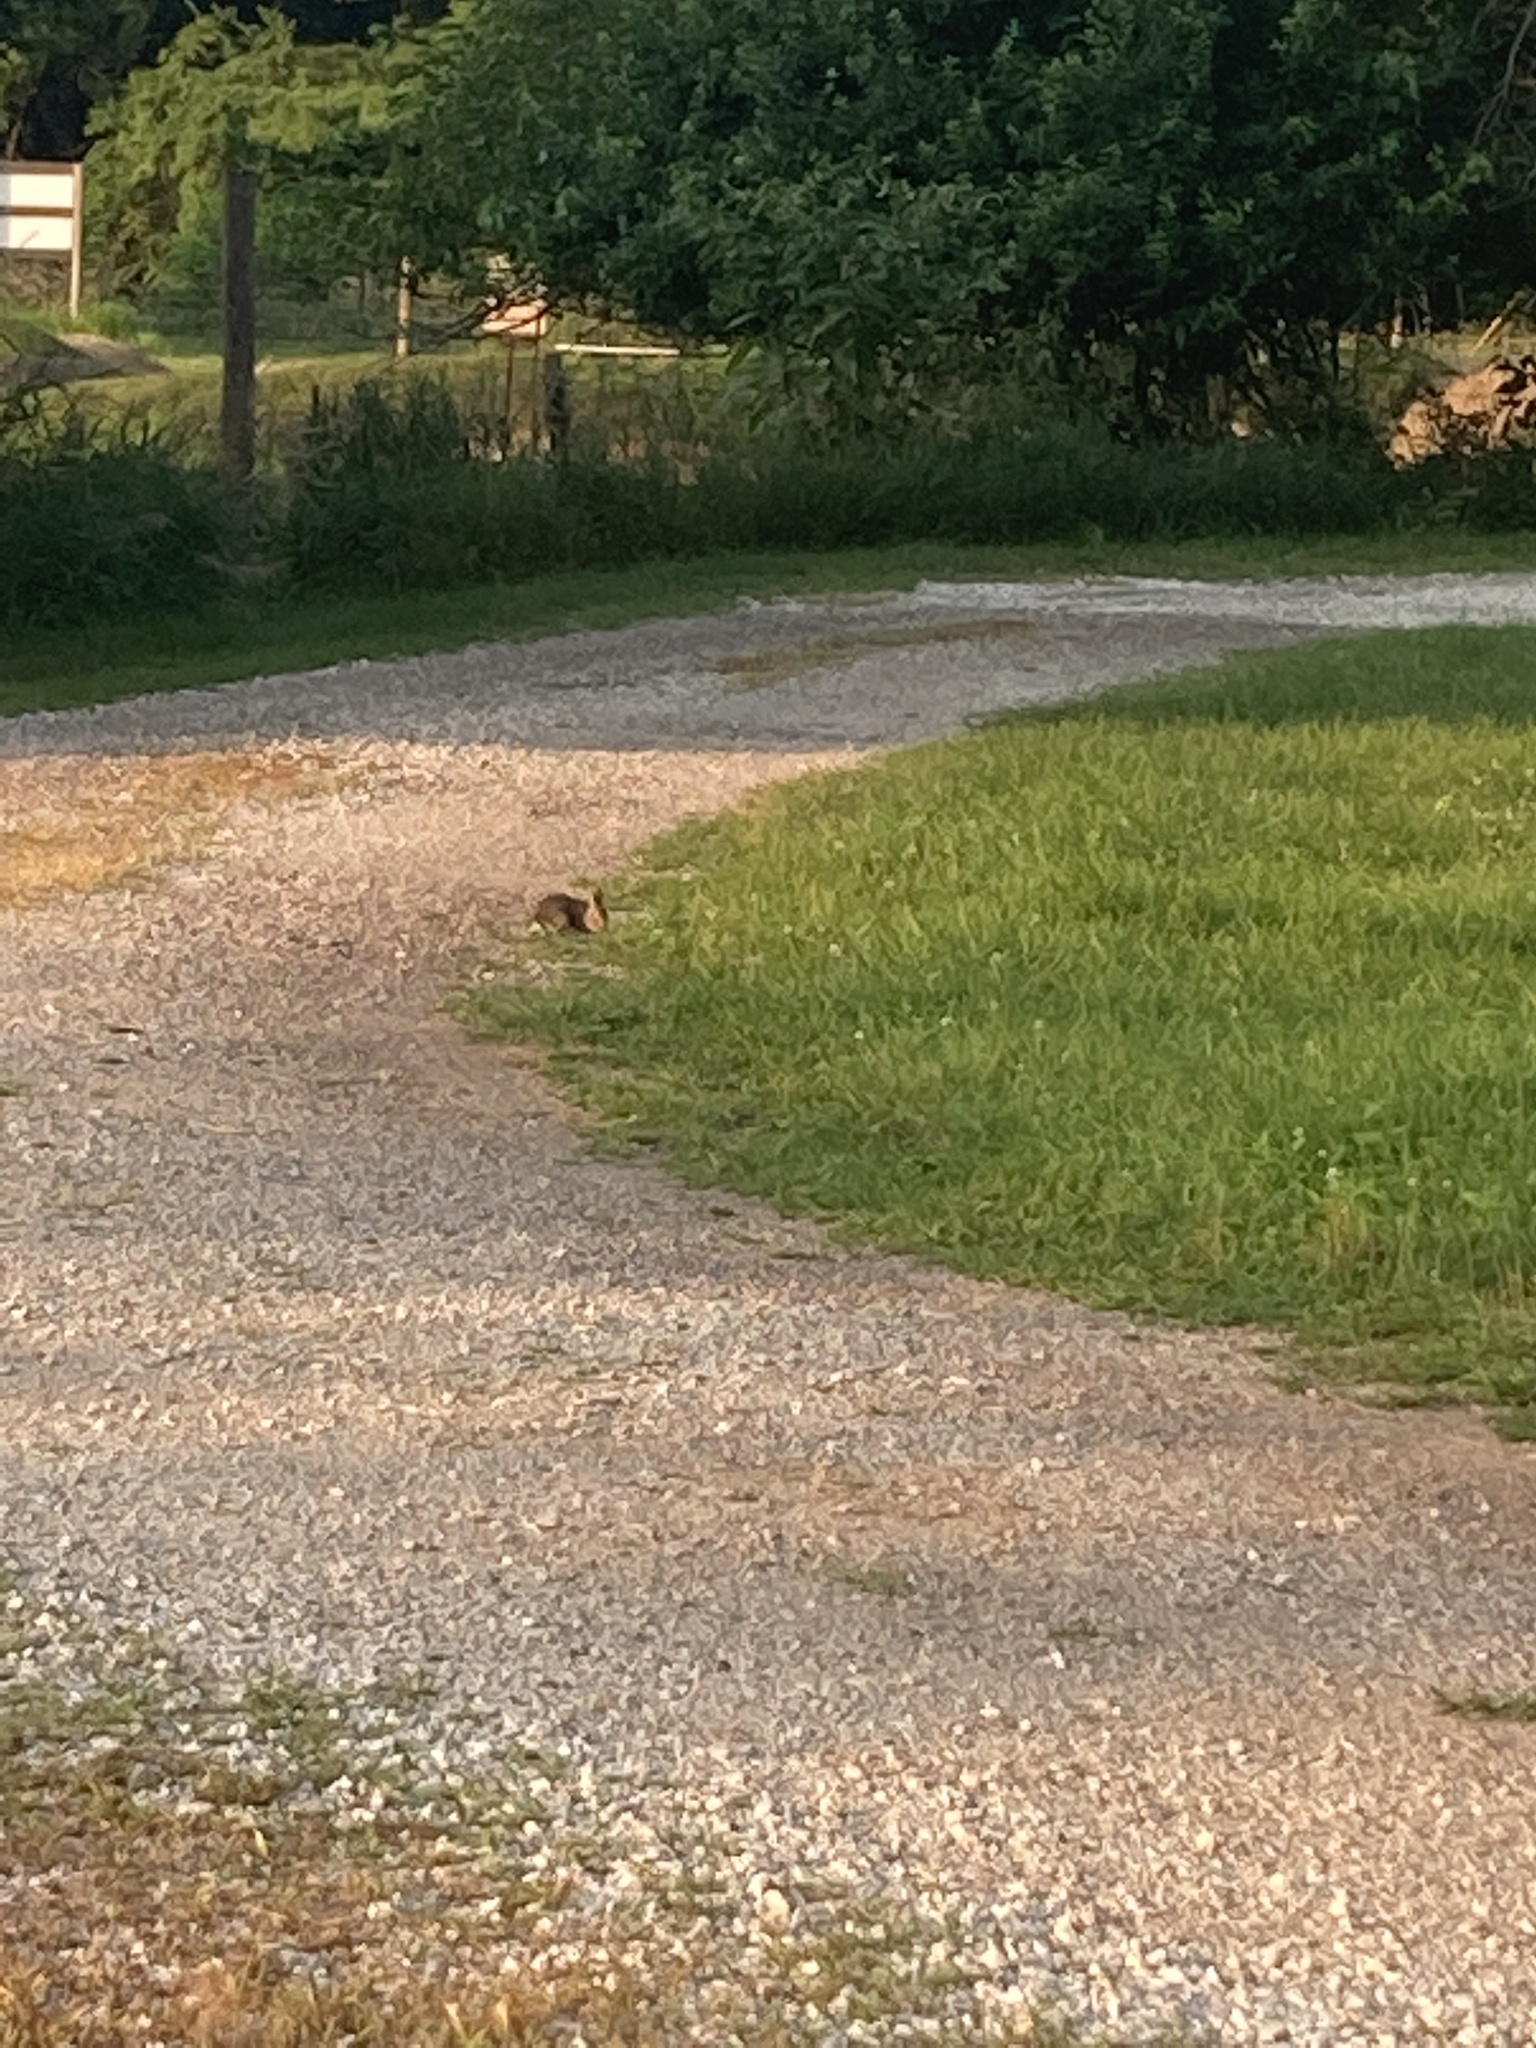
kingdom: Animalia
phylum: Chordata
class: Mammalia
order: Lagomorpha
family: Leporidae
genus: Sylvilagus
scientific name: Sylvilagus floridanus
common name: Eastern cottontail
